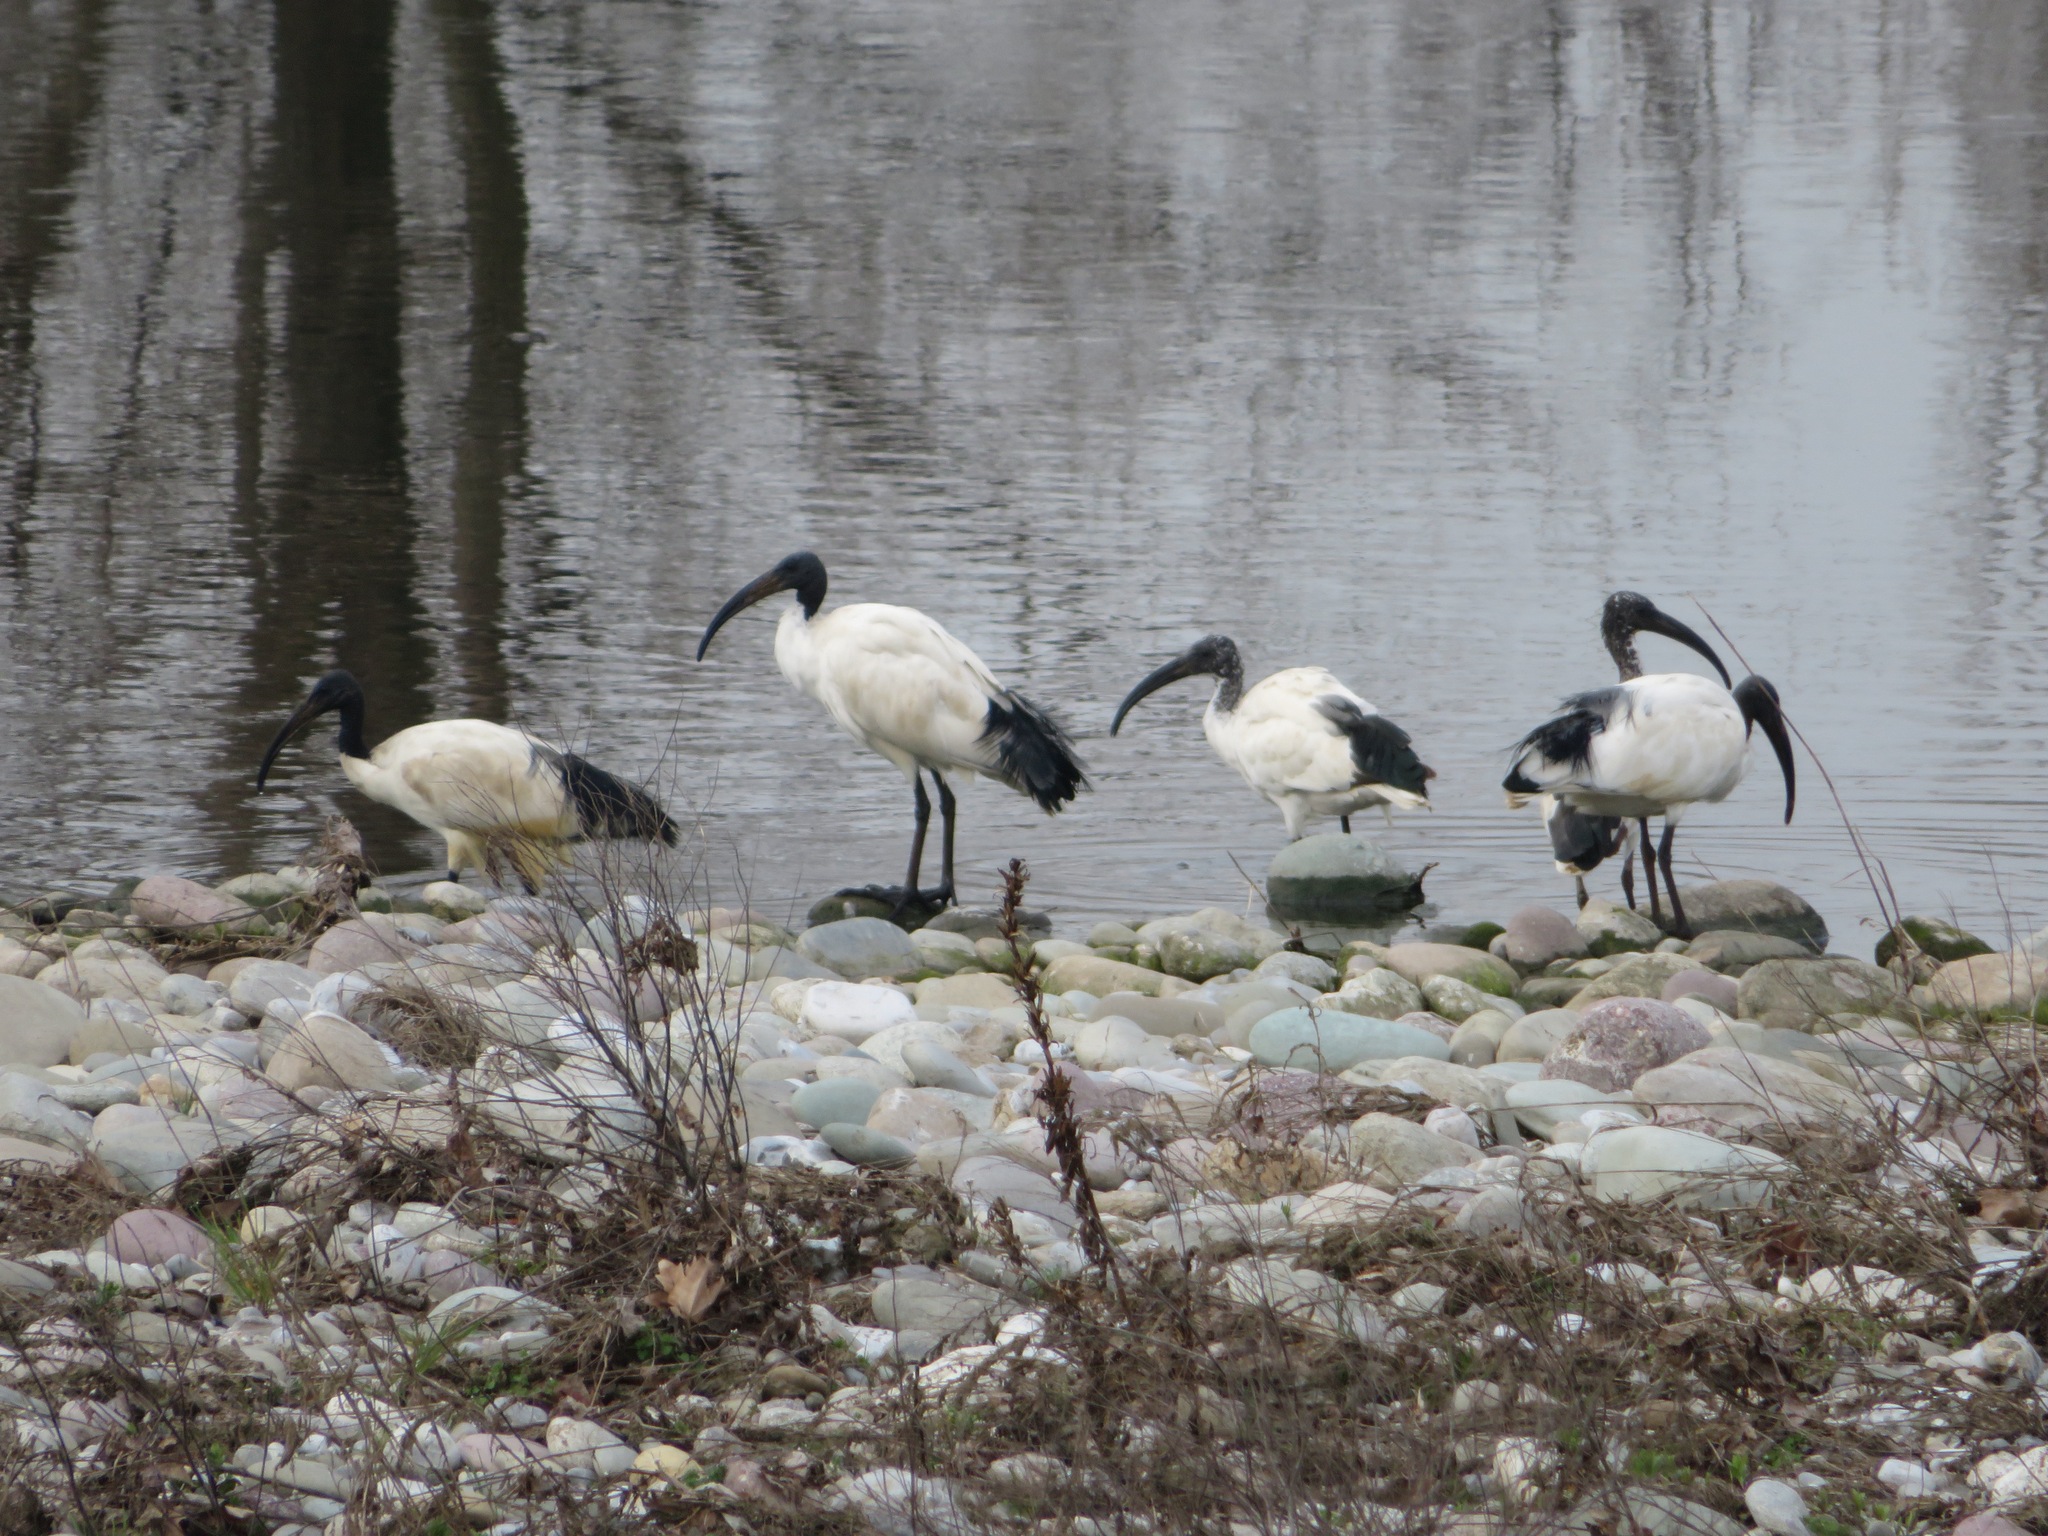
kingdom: Animalia
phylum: Chordata
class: Aves
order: Pelecaniformes
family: Threskiornithidae
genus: Threskiornis
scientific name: Threskiornis aethiopicus
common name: Sacred ibis
